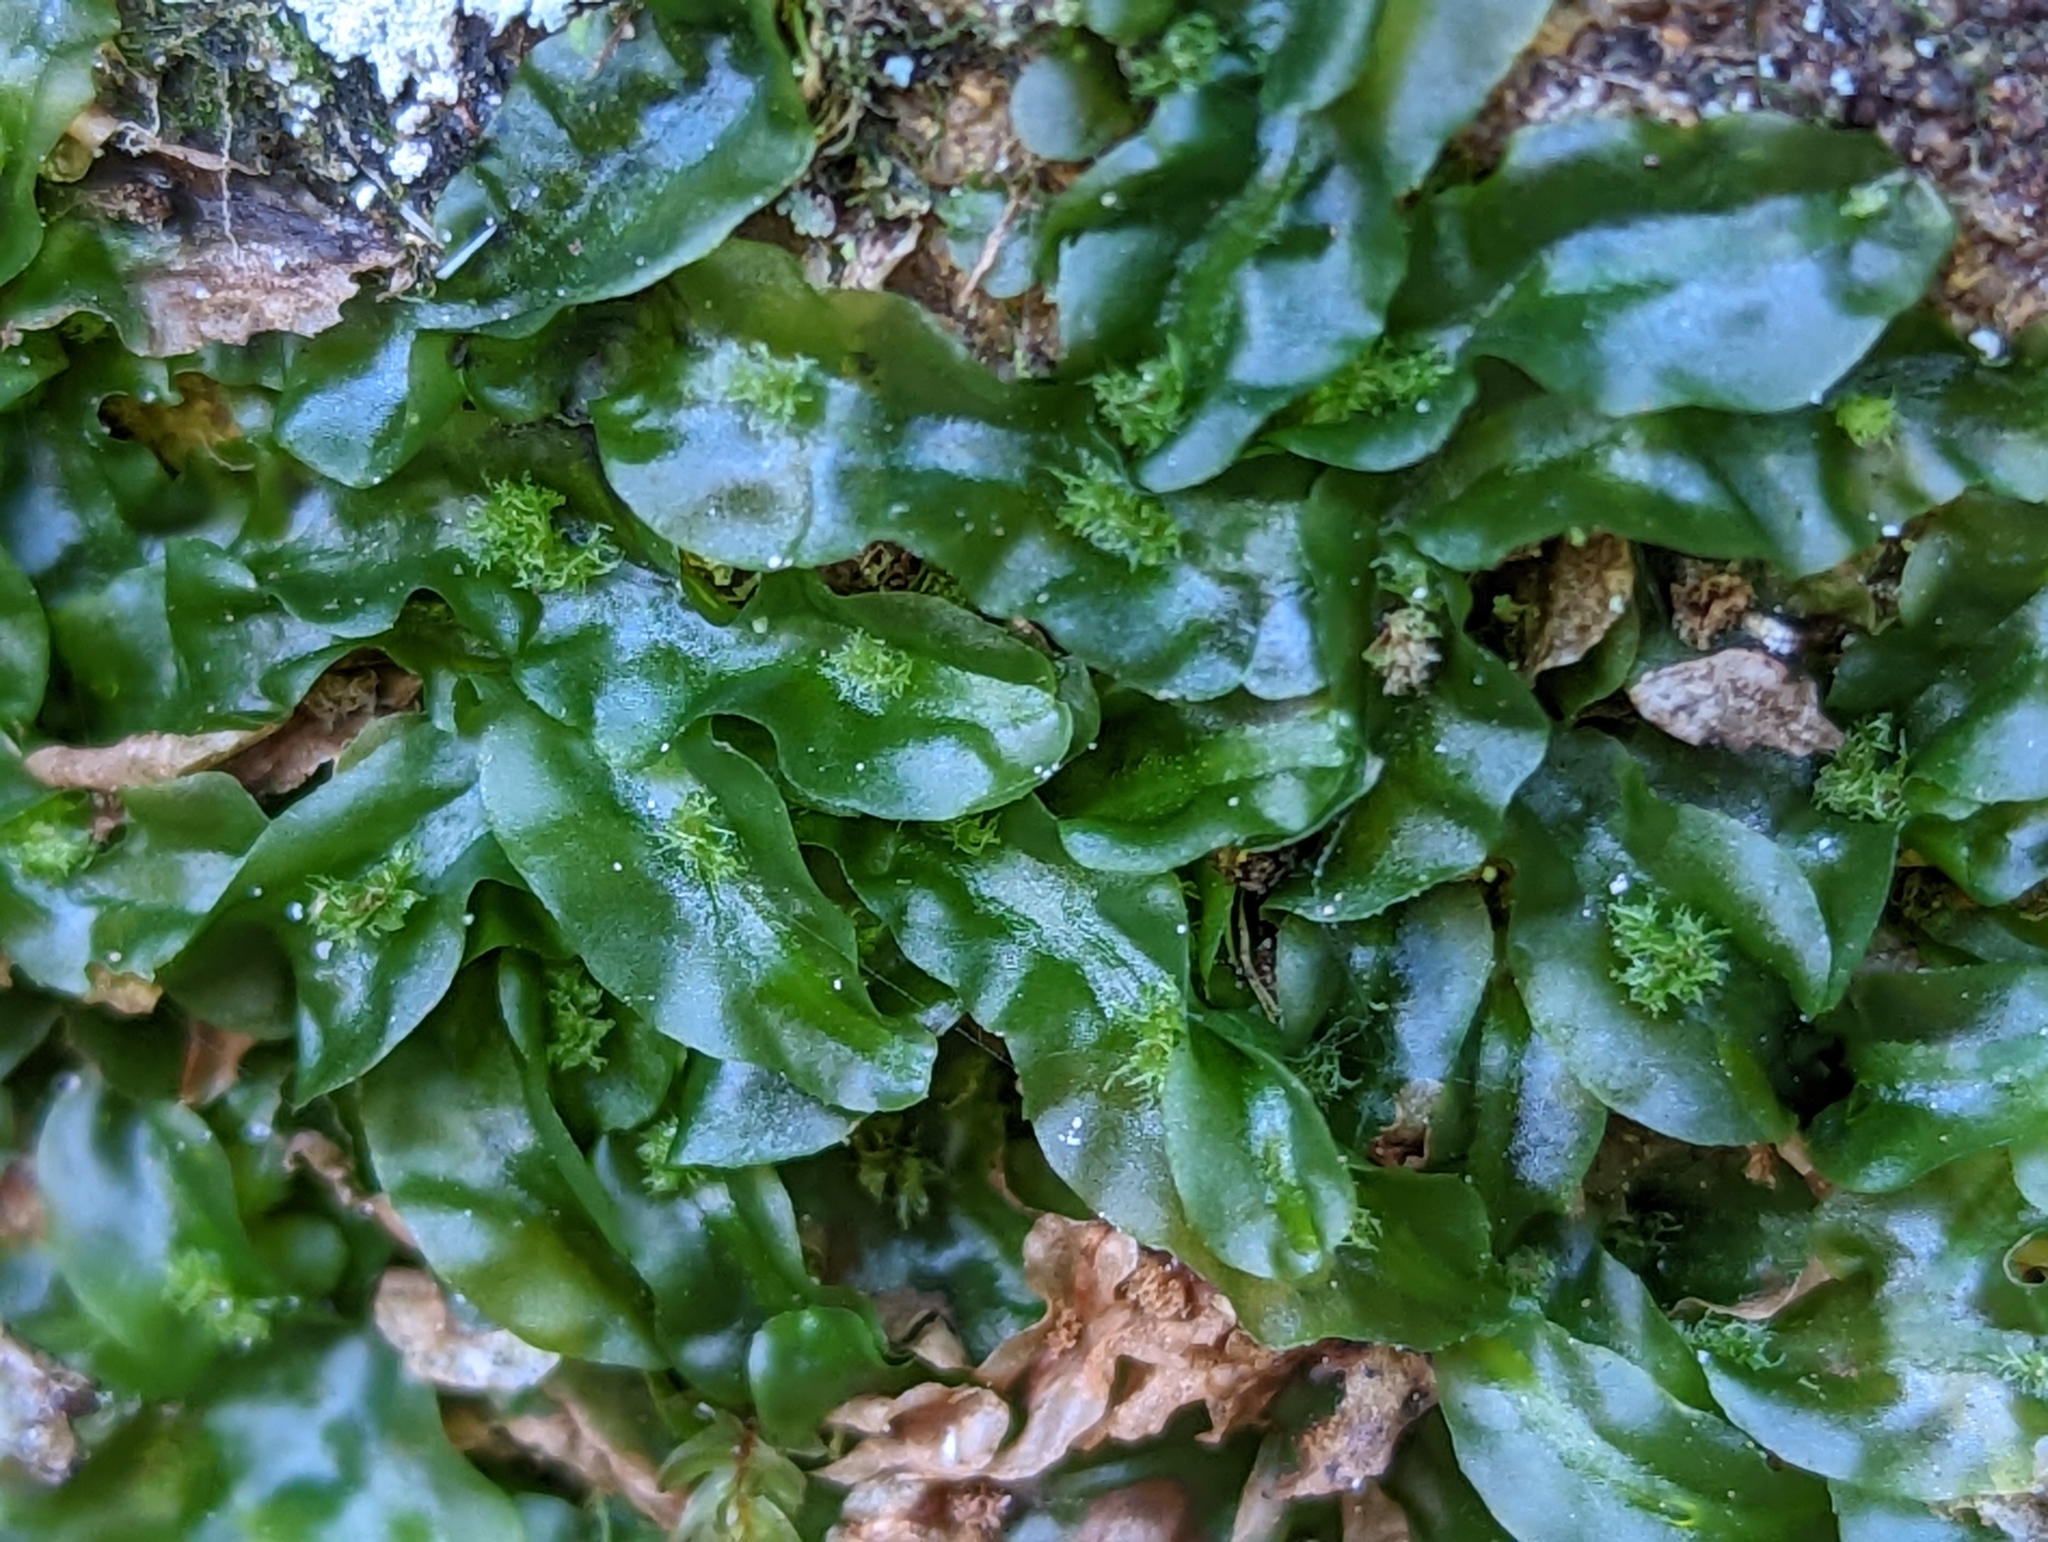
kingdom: Plantae
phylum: Marchantiophyta
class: Jungermanniopsida
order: Pallaviciniales
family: Pallaviciniaceae
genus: Pallavicinia
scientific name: Pallavicinia lyellii
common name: Veilwort
